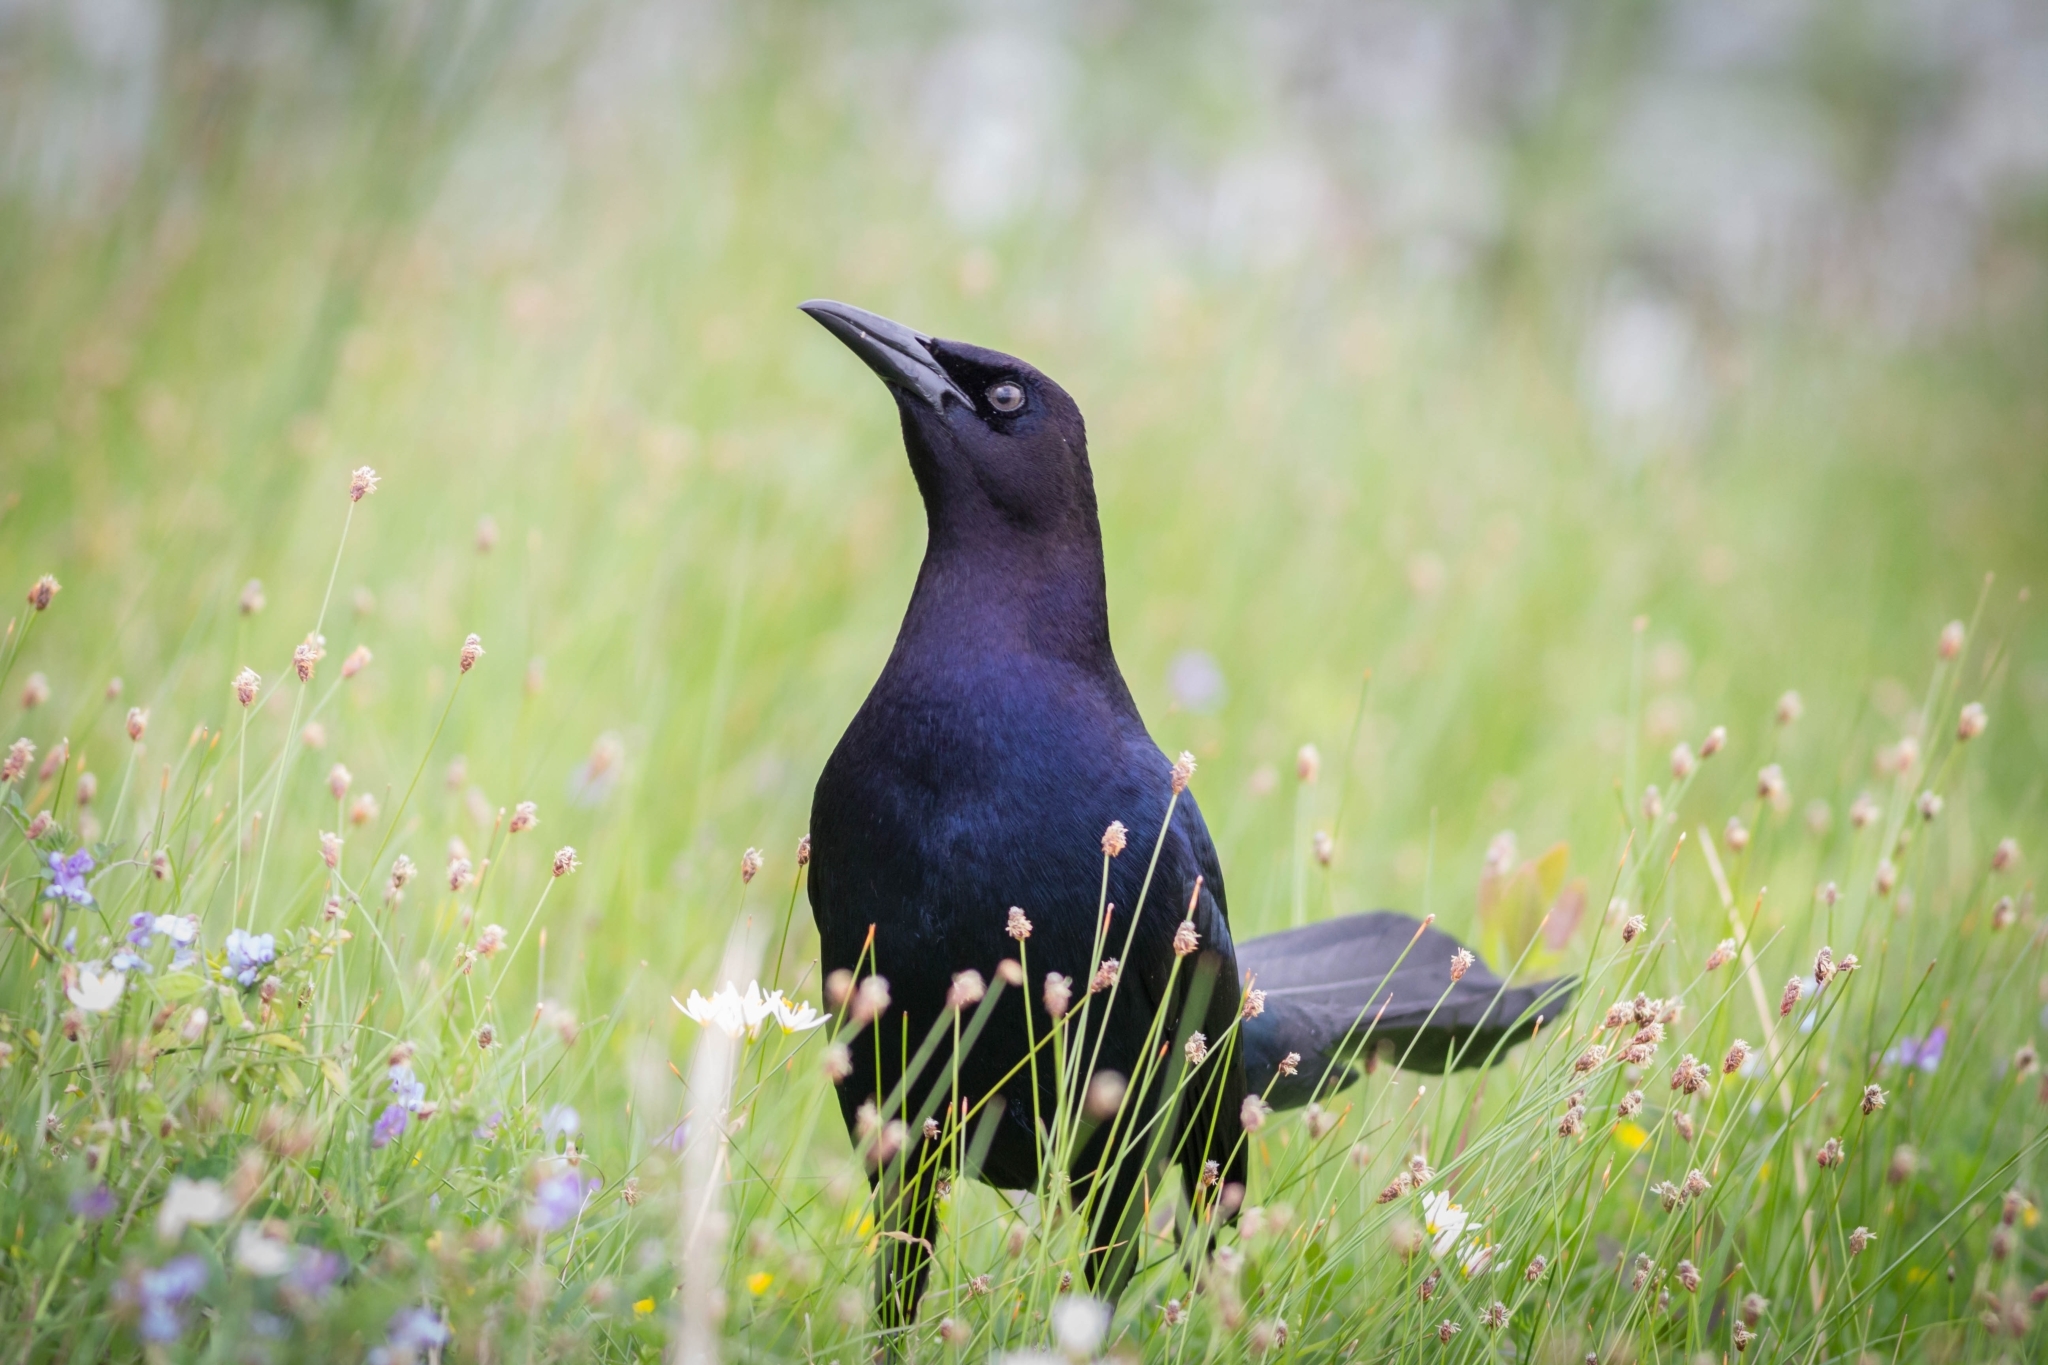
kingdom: Animalia
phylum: Chordata
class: Aves
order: Passeriformes
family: Icteridae
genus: Quiscalus
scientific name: Quiscalus major
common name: Boat-tailed grackle
